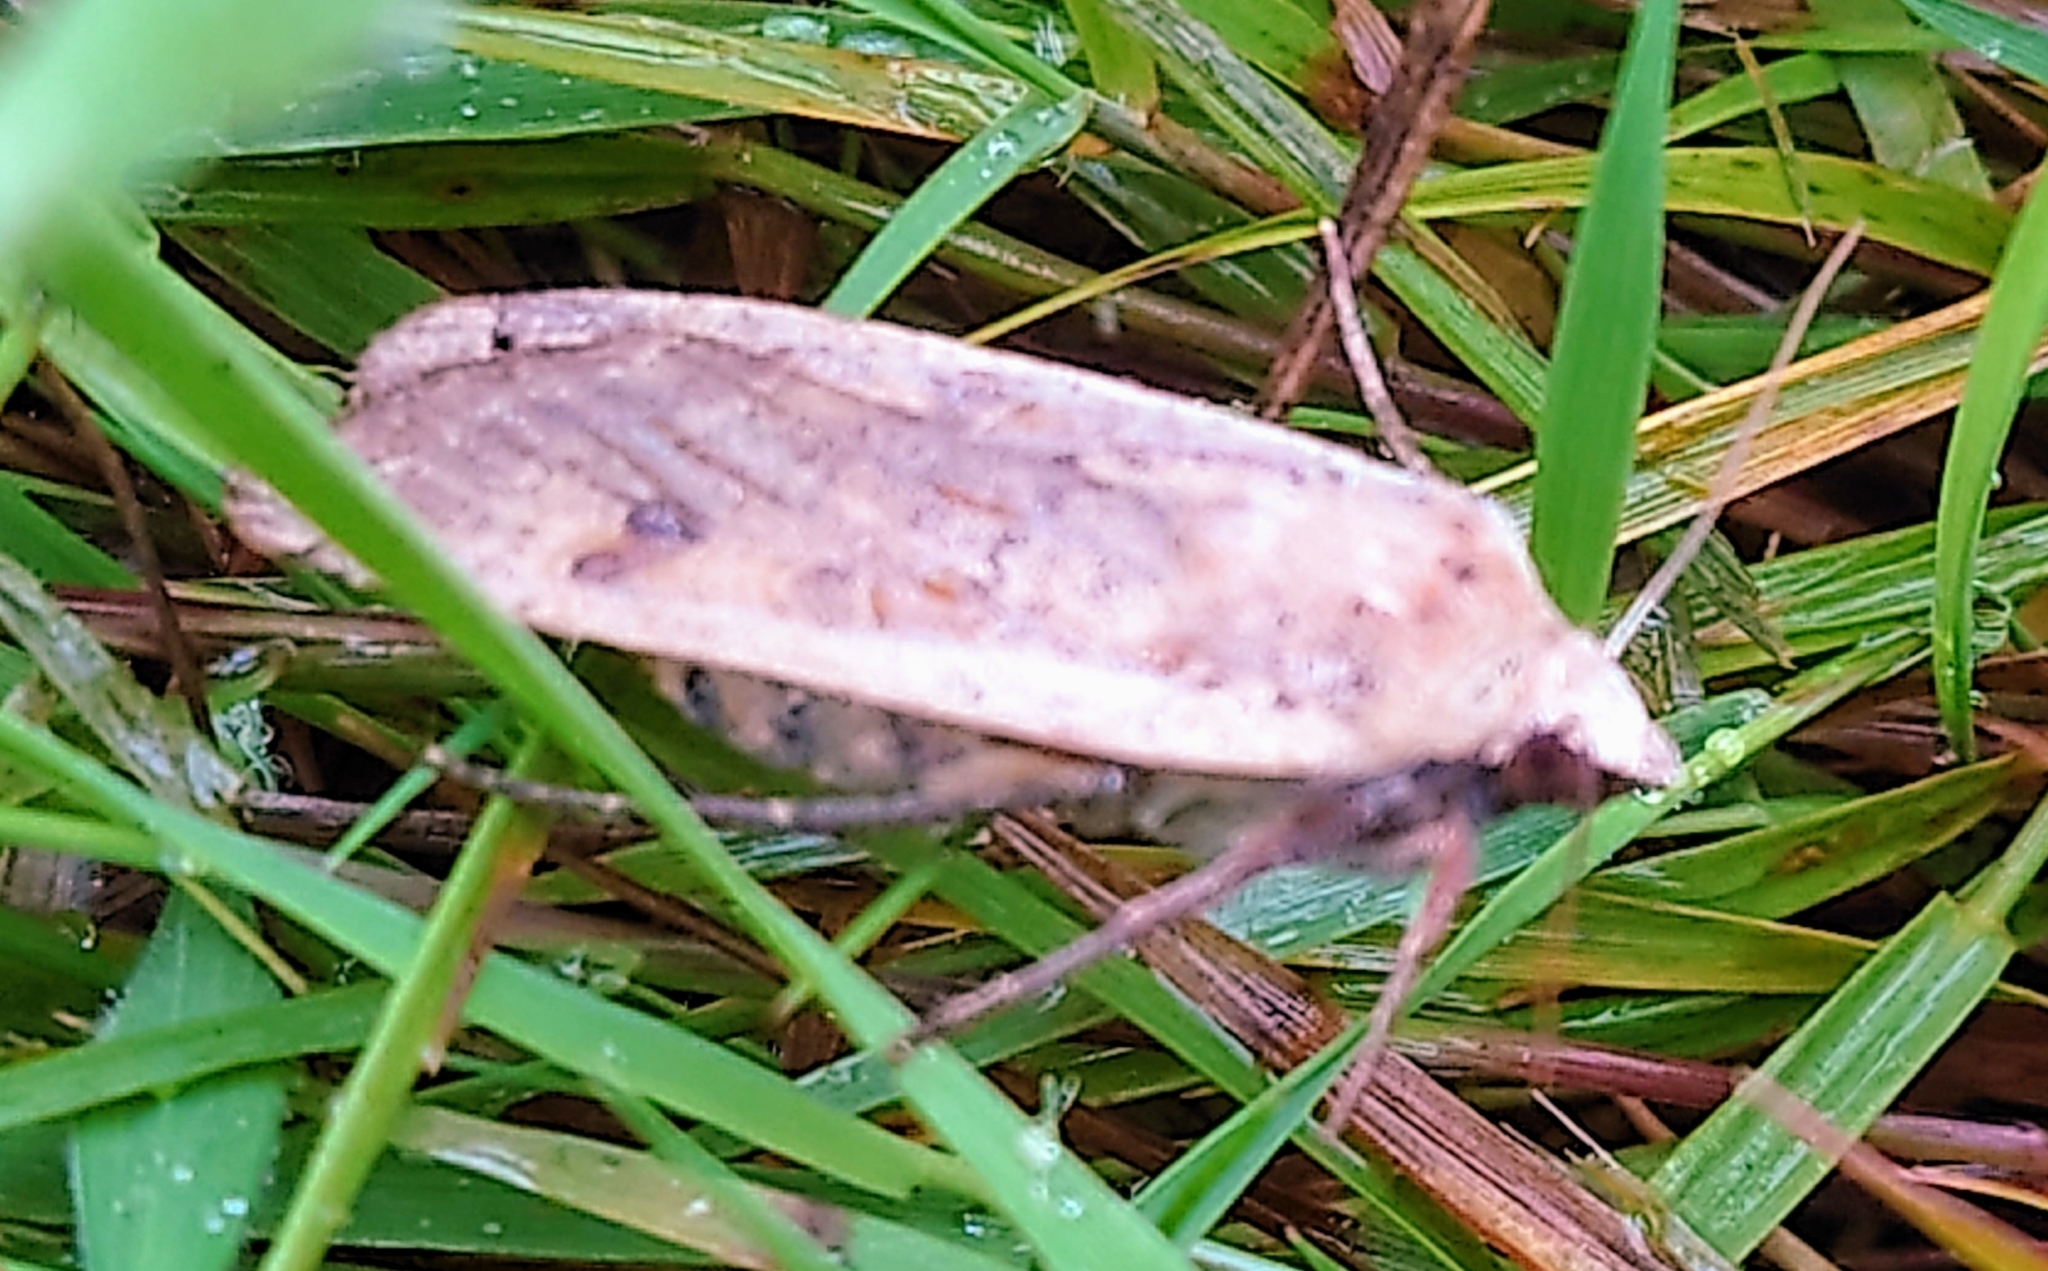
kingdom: Animalia
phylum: Arthropoda
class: Insecta
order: Lepidoptera
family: Noctuidae
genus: Noctua
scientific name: Noctua pronuba
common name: Large yellow underwing
